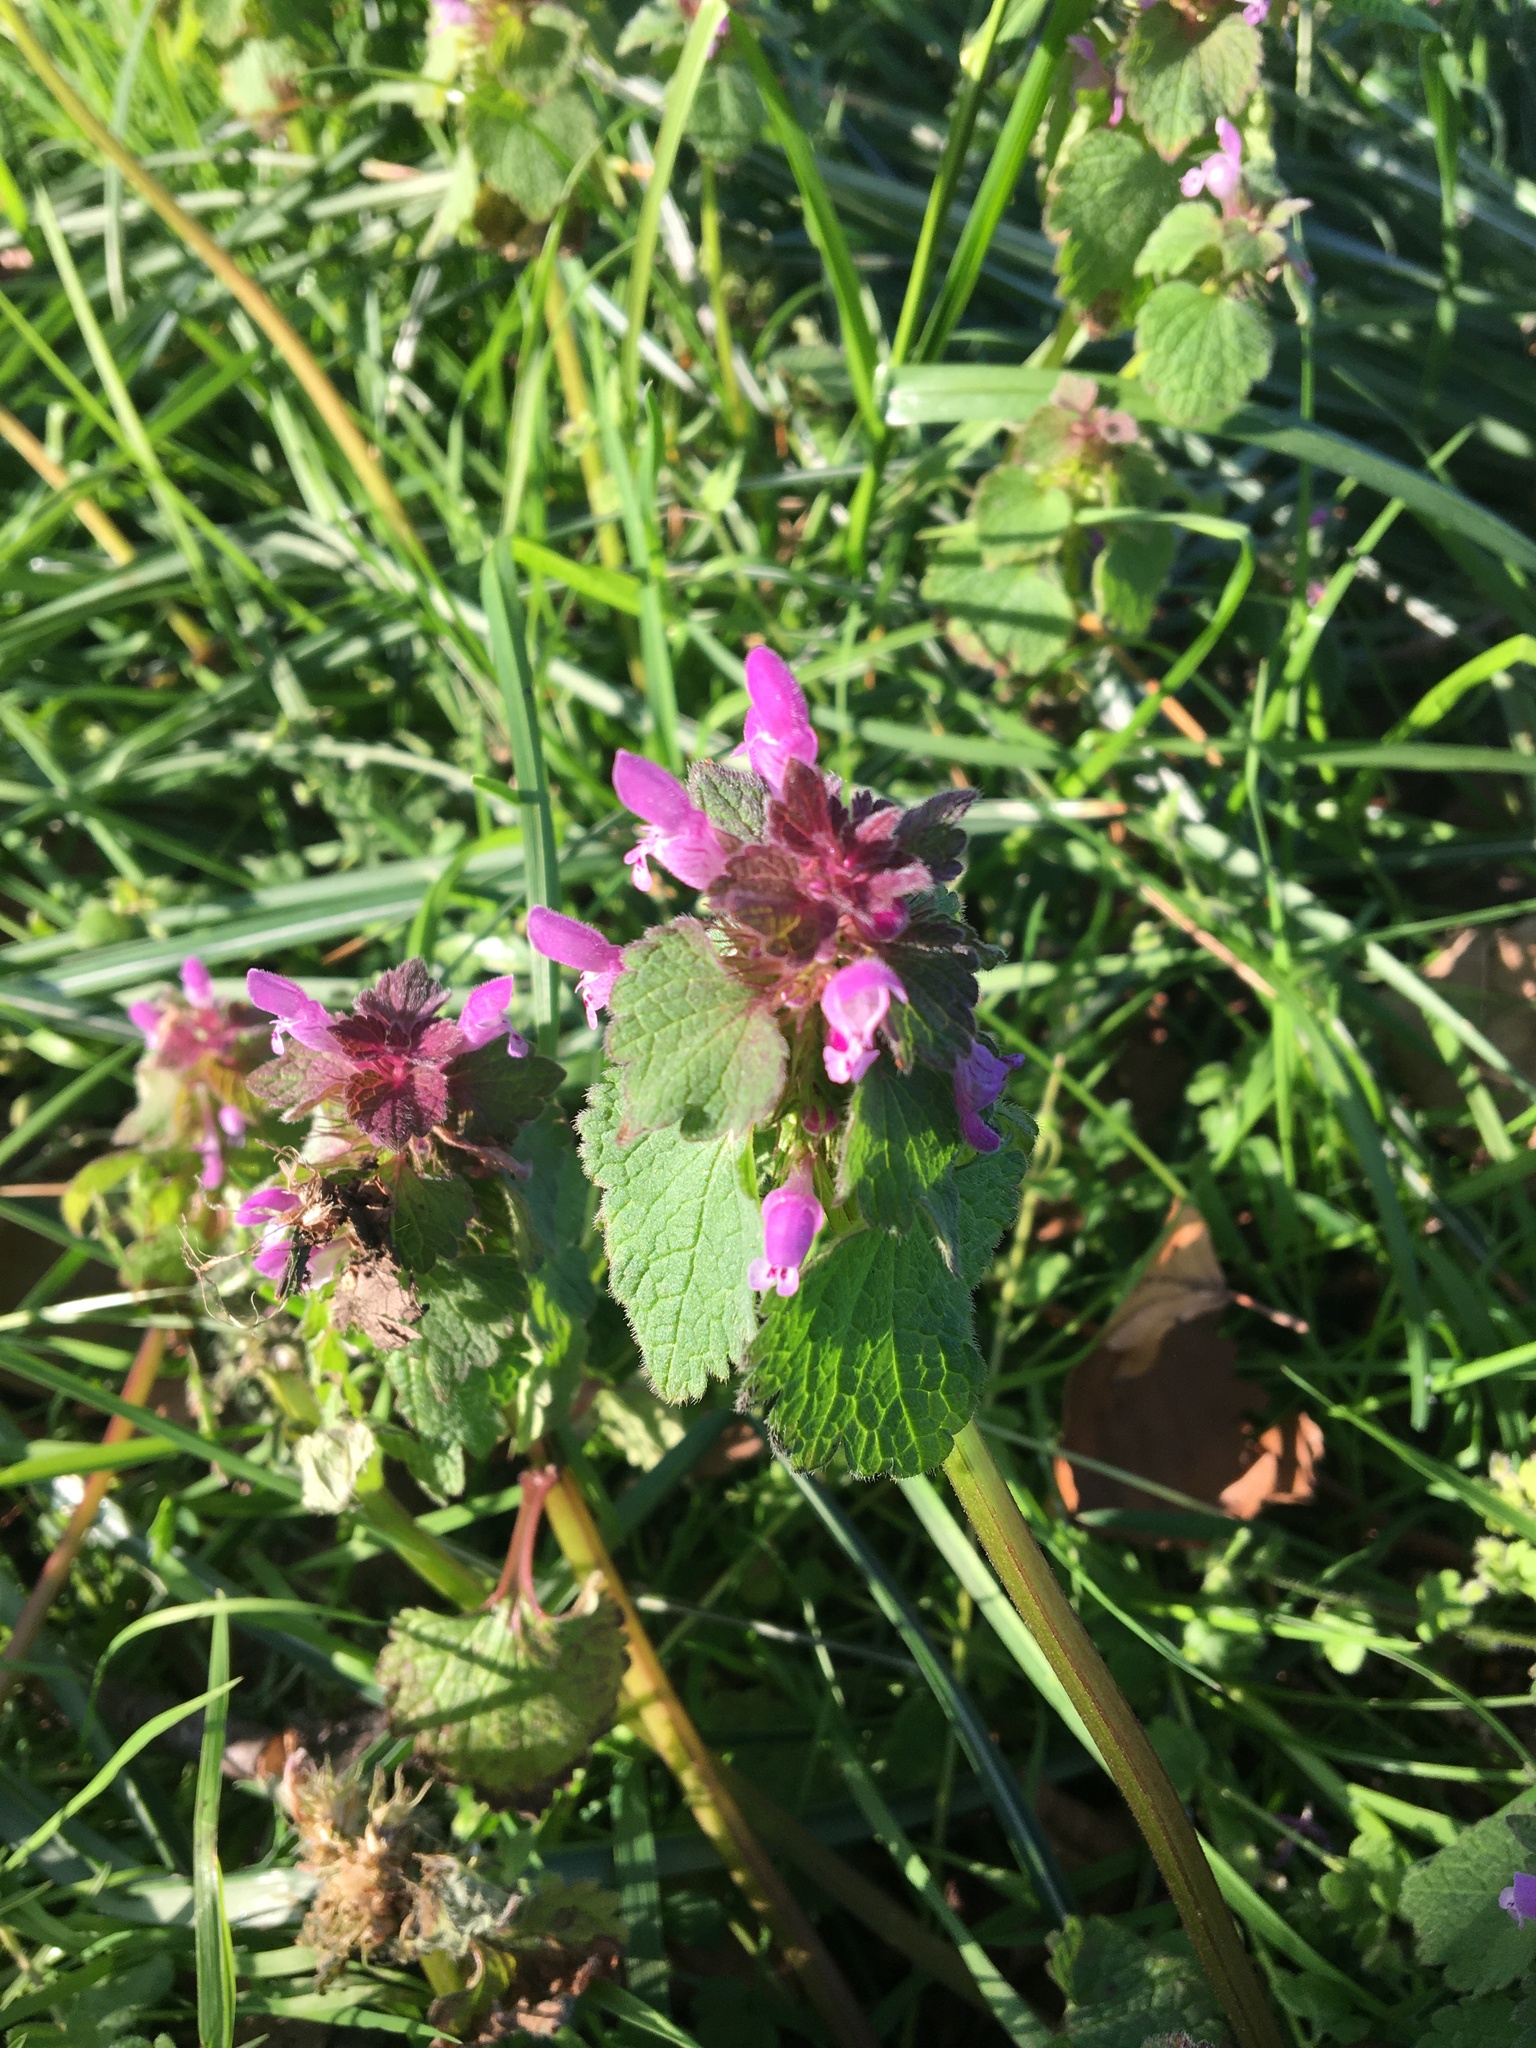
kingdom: Plantae
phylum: Tracheophyta
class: Magnoliopsida
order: Lamiales
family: Lamiaceae
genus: Lamium
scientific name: Lamium purpureum
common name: Red dead-nettle
